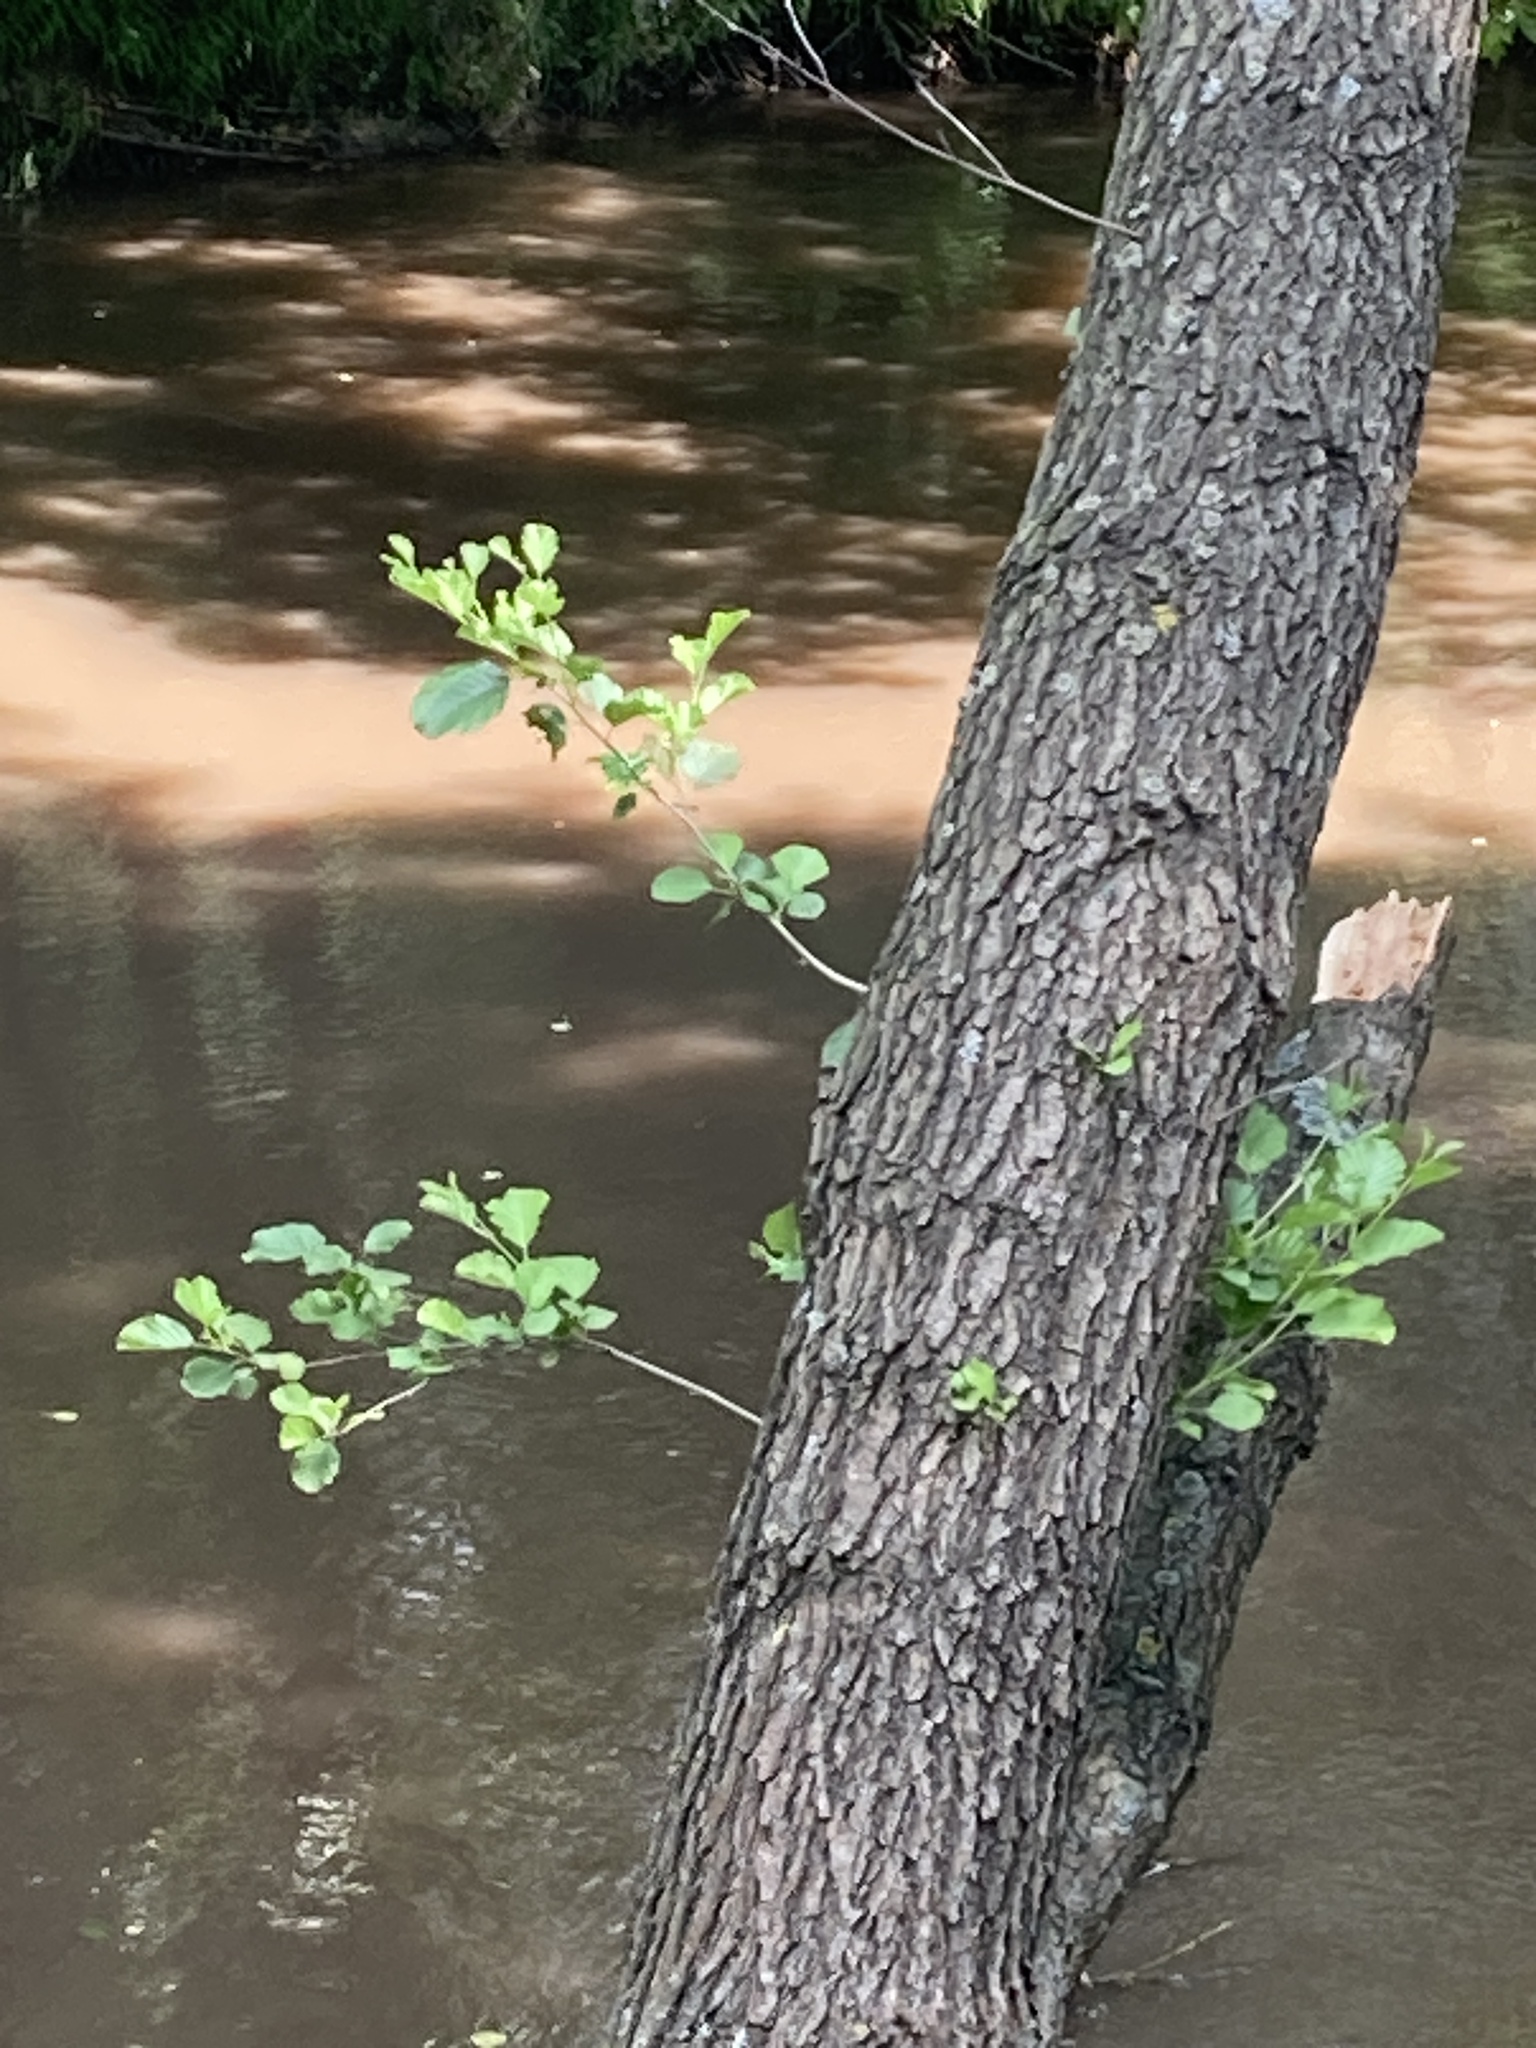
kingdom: Plantae
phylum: Tracheophyta
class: Magnoliopsida
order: Fagales
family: Betulaceae
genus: Alnus
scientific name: Alnus glutinosa
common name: Black alder
